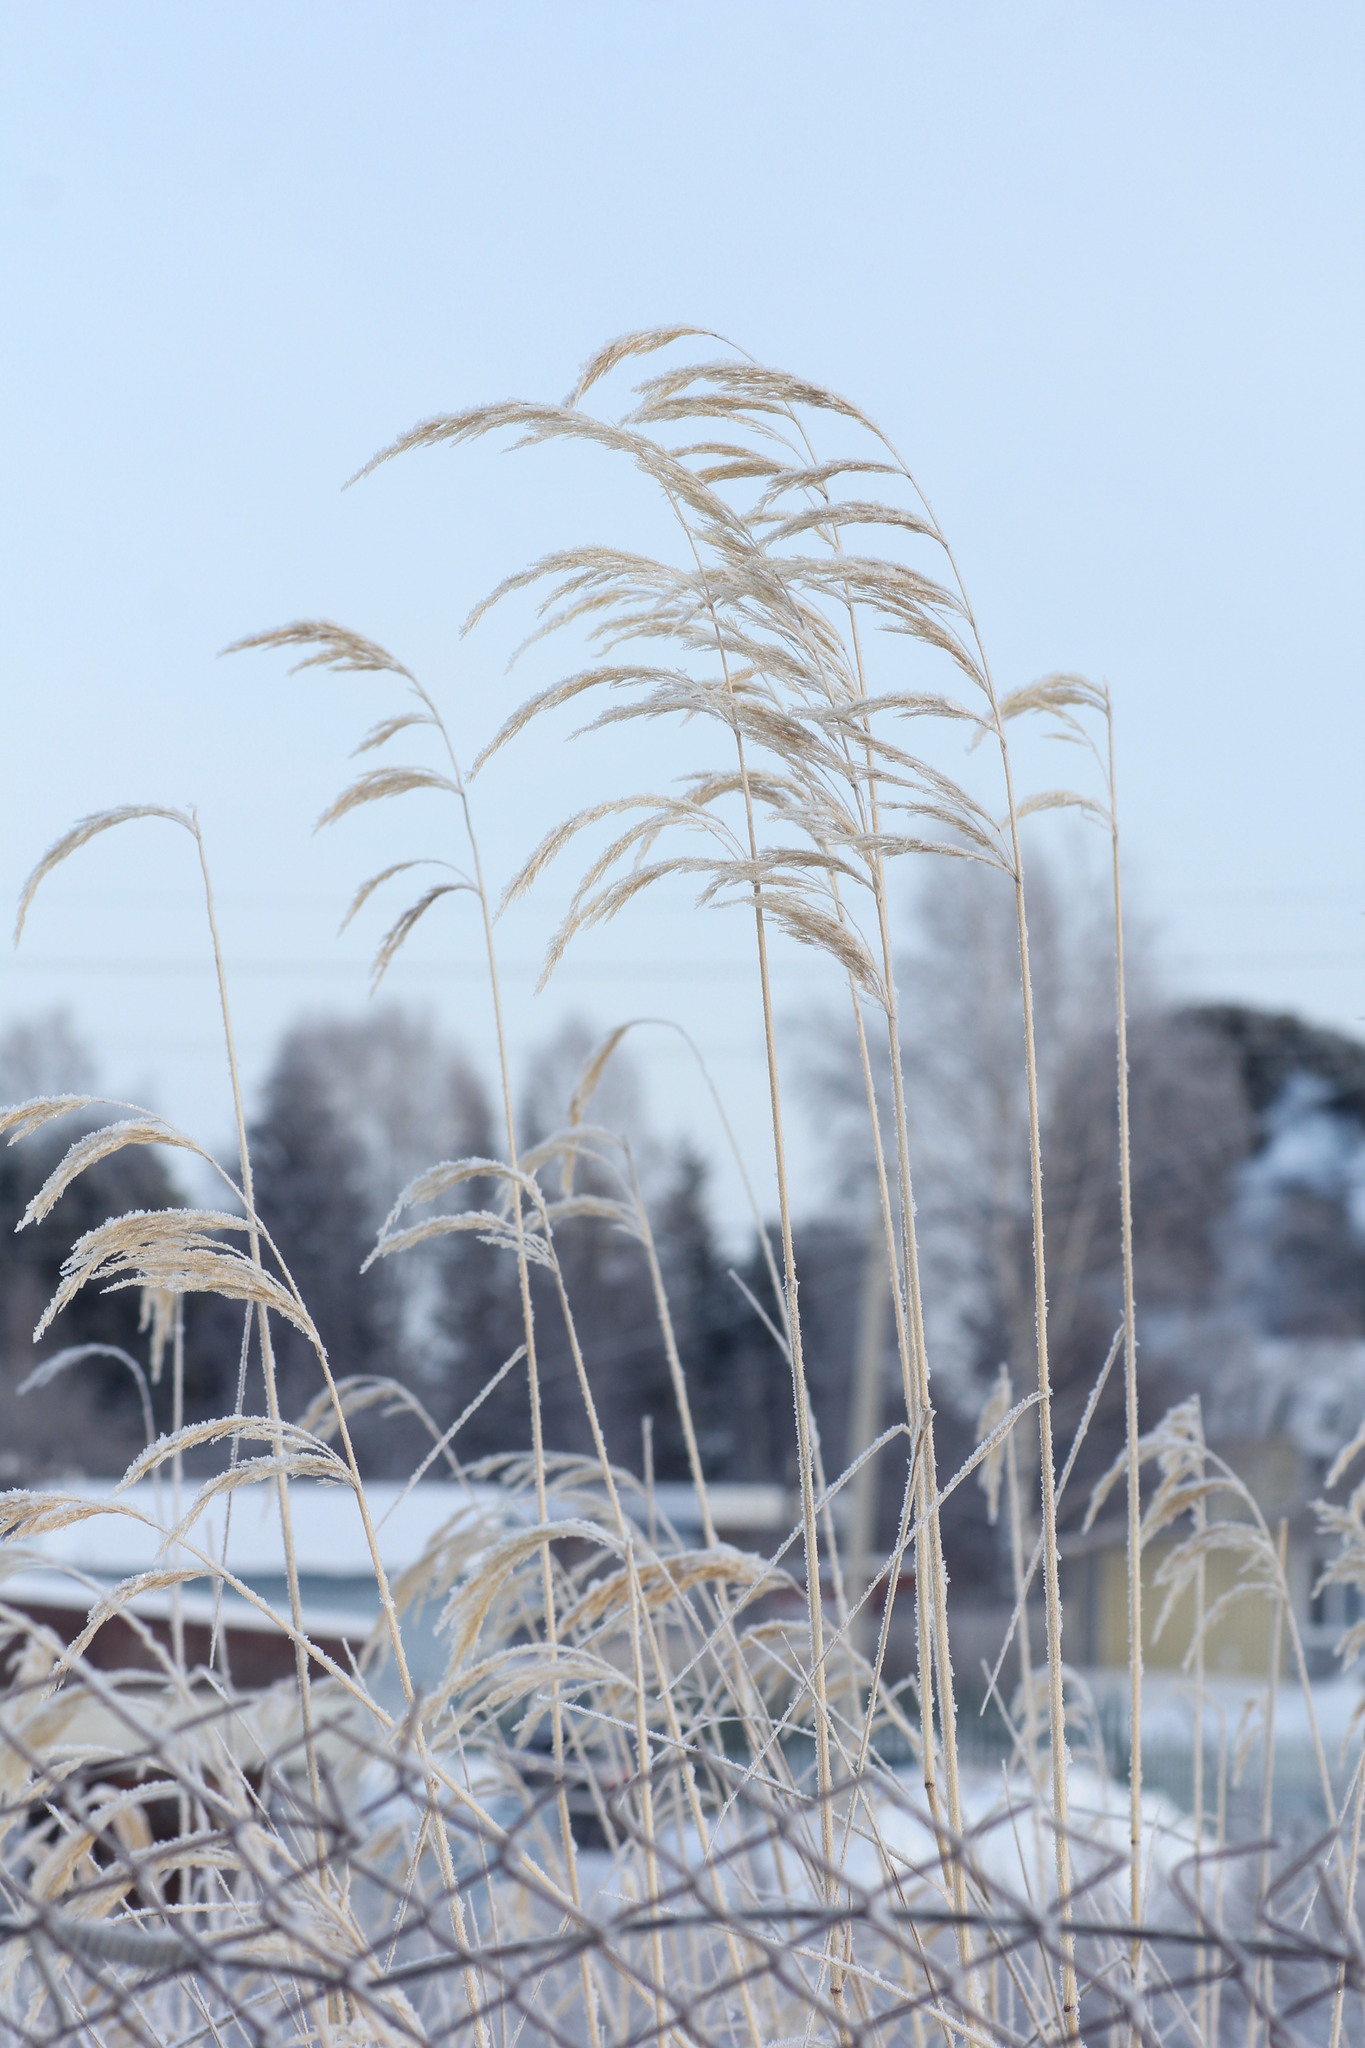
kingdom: Plantae
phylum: Tracheophyta
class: Liliopsida
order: Poales
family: Poaceae
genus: Phragmites
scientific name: Phragmites australis
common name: Common reed
